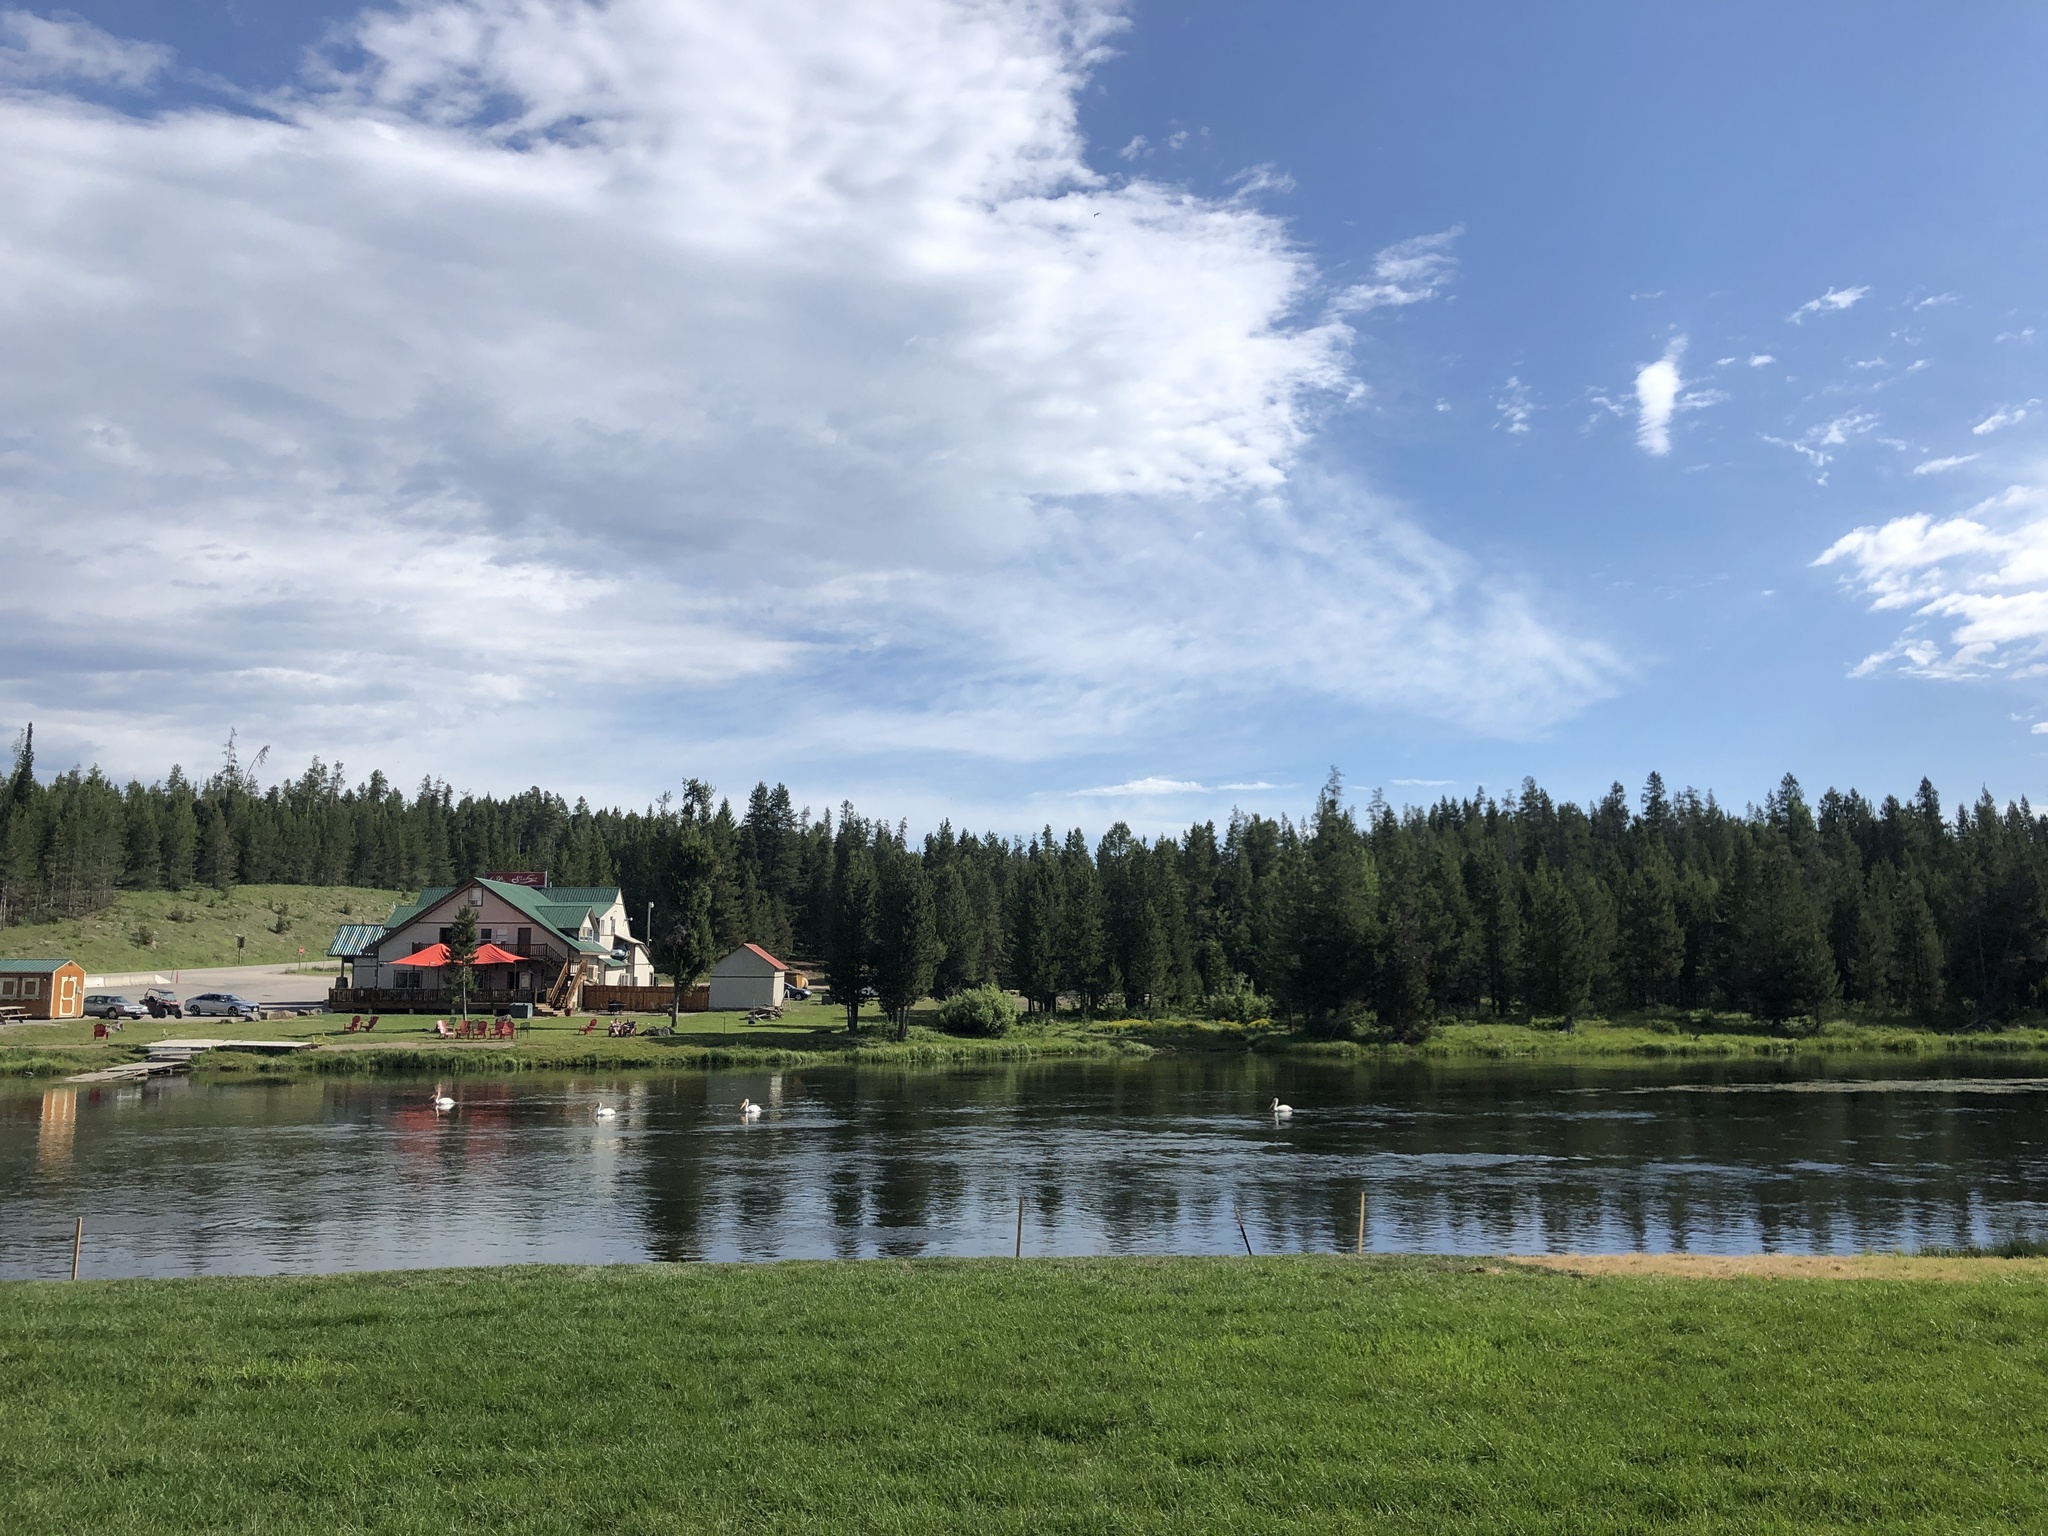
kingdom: Animalia
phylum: Chordata
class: Aves
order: Pelecaniformes
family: Pelecanidae
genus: Pelecanus
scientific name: Pelecanus erythrorhynchos
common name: American white pelican
